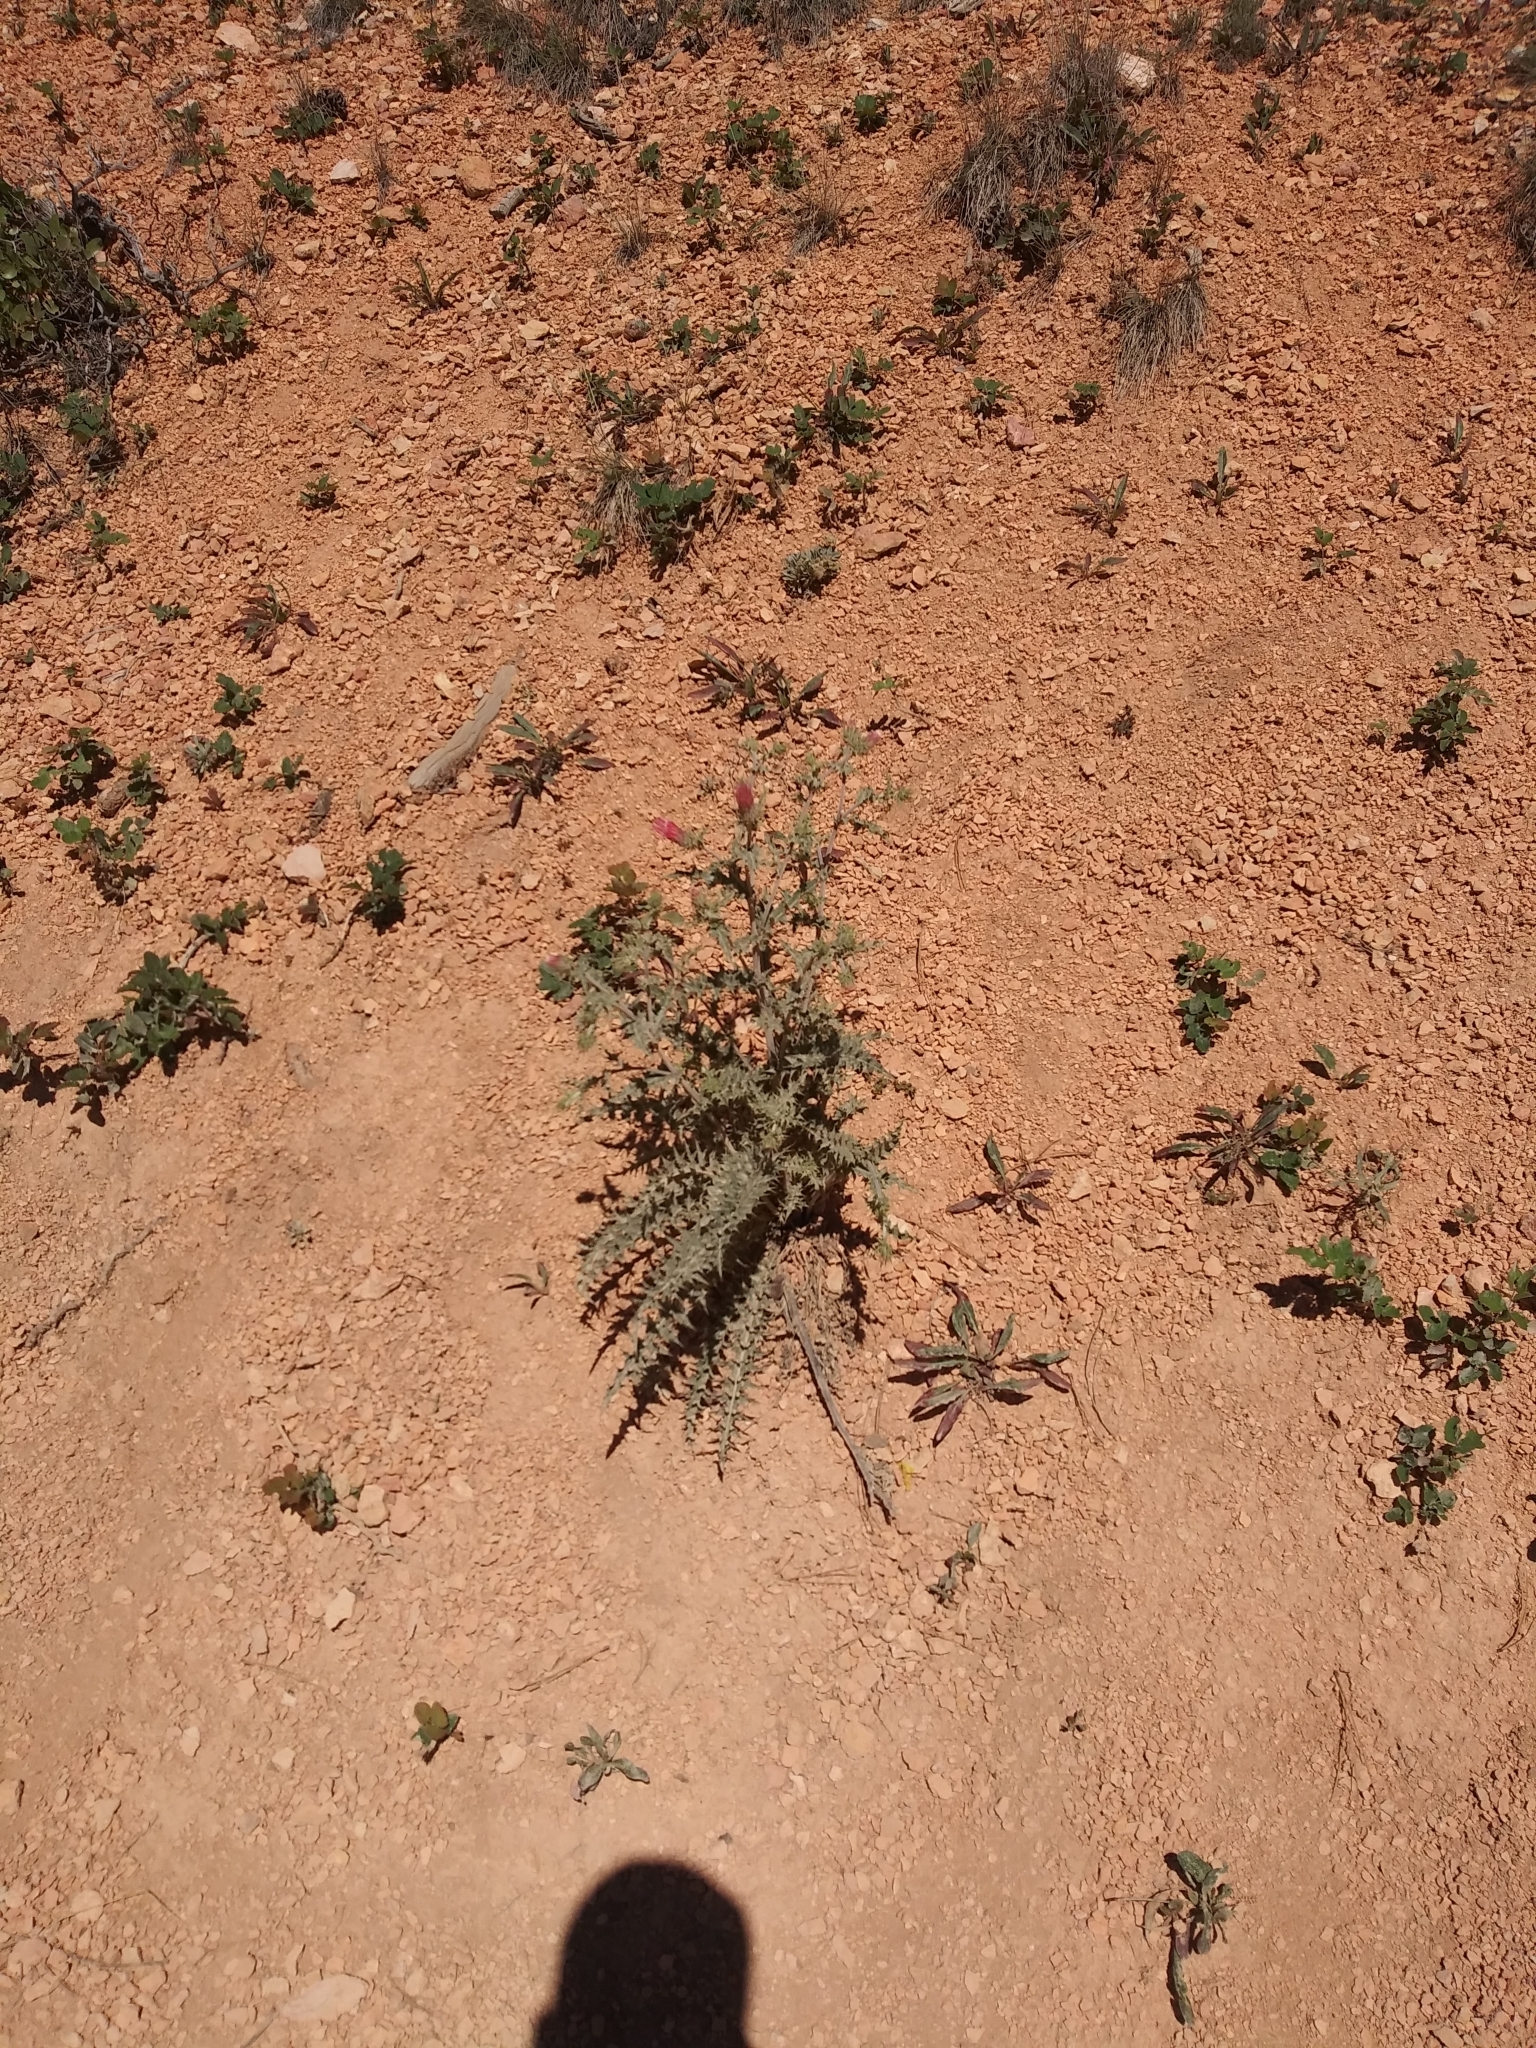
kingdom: Plantae
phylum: Tracheophyta
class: Magnoliopsida
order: Asterales
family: Asteraceae
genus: Cirsium
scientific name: Cirsium arizonicum
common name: Arizona thistle
